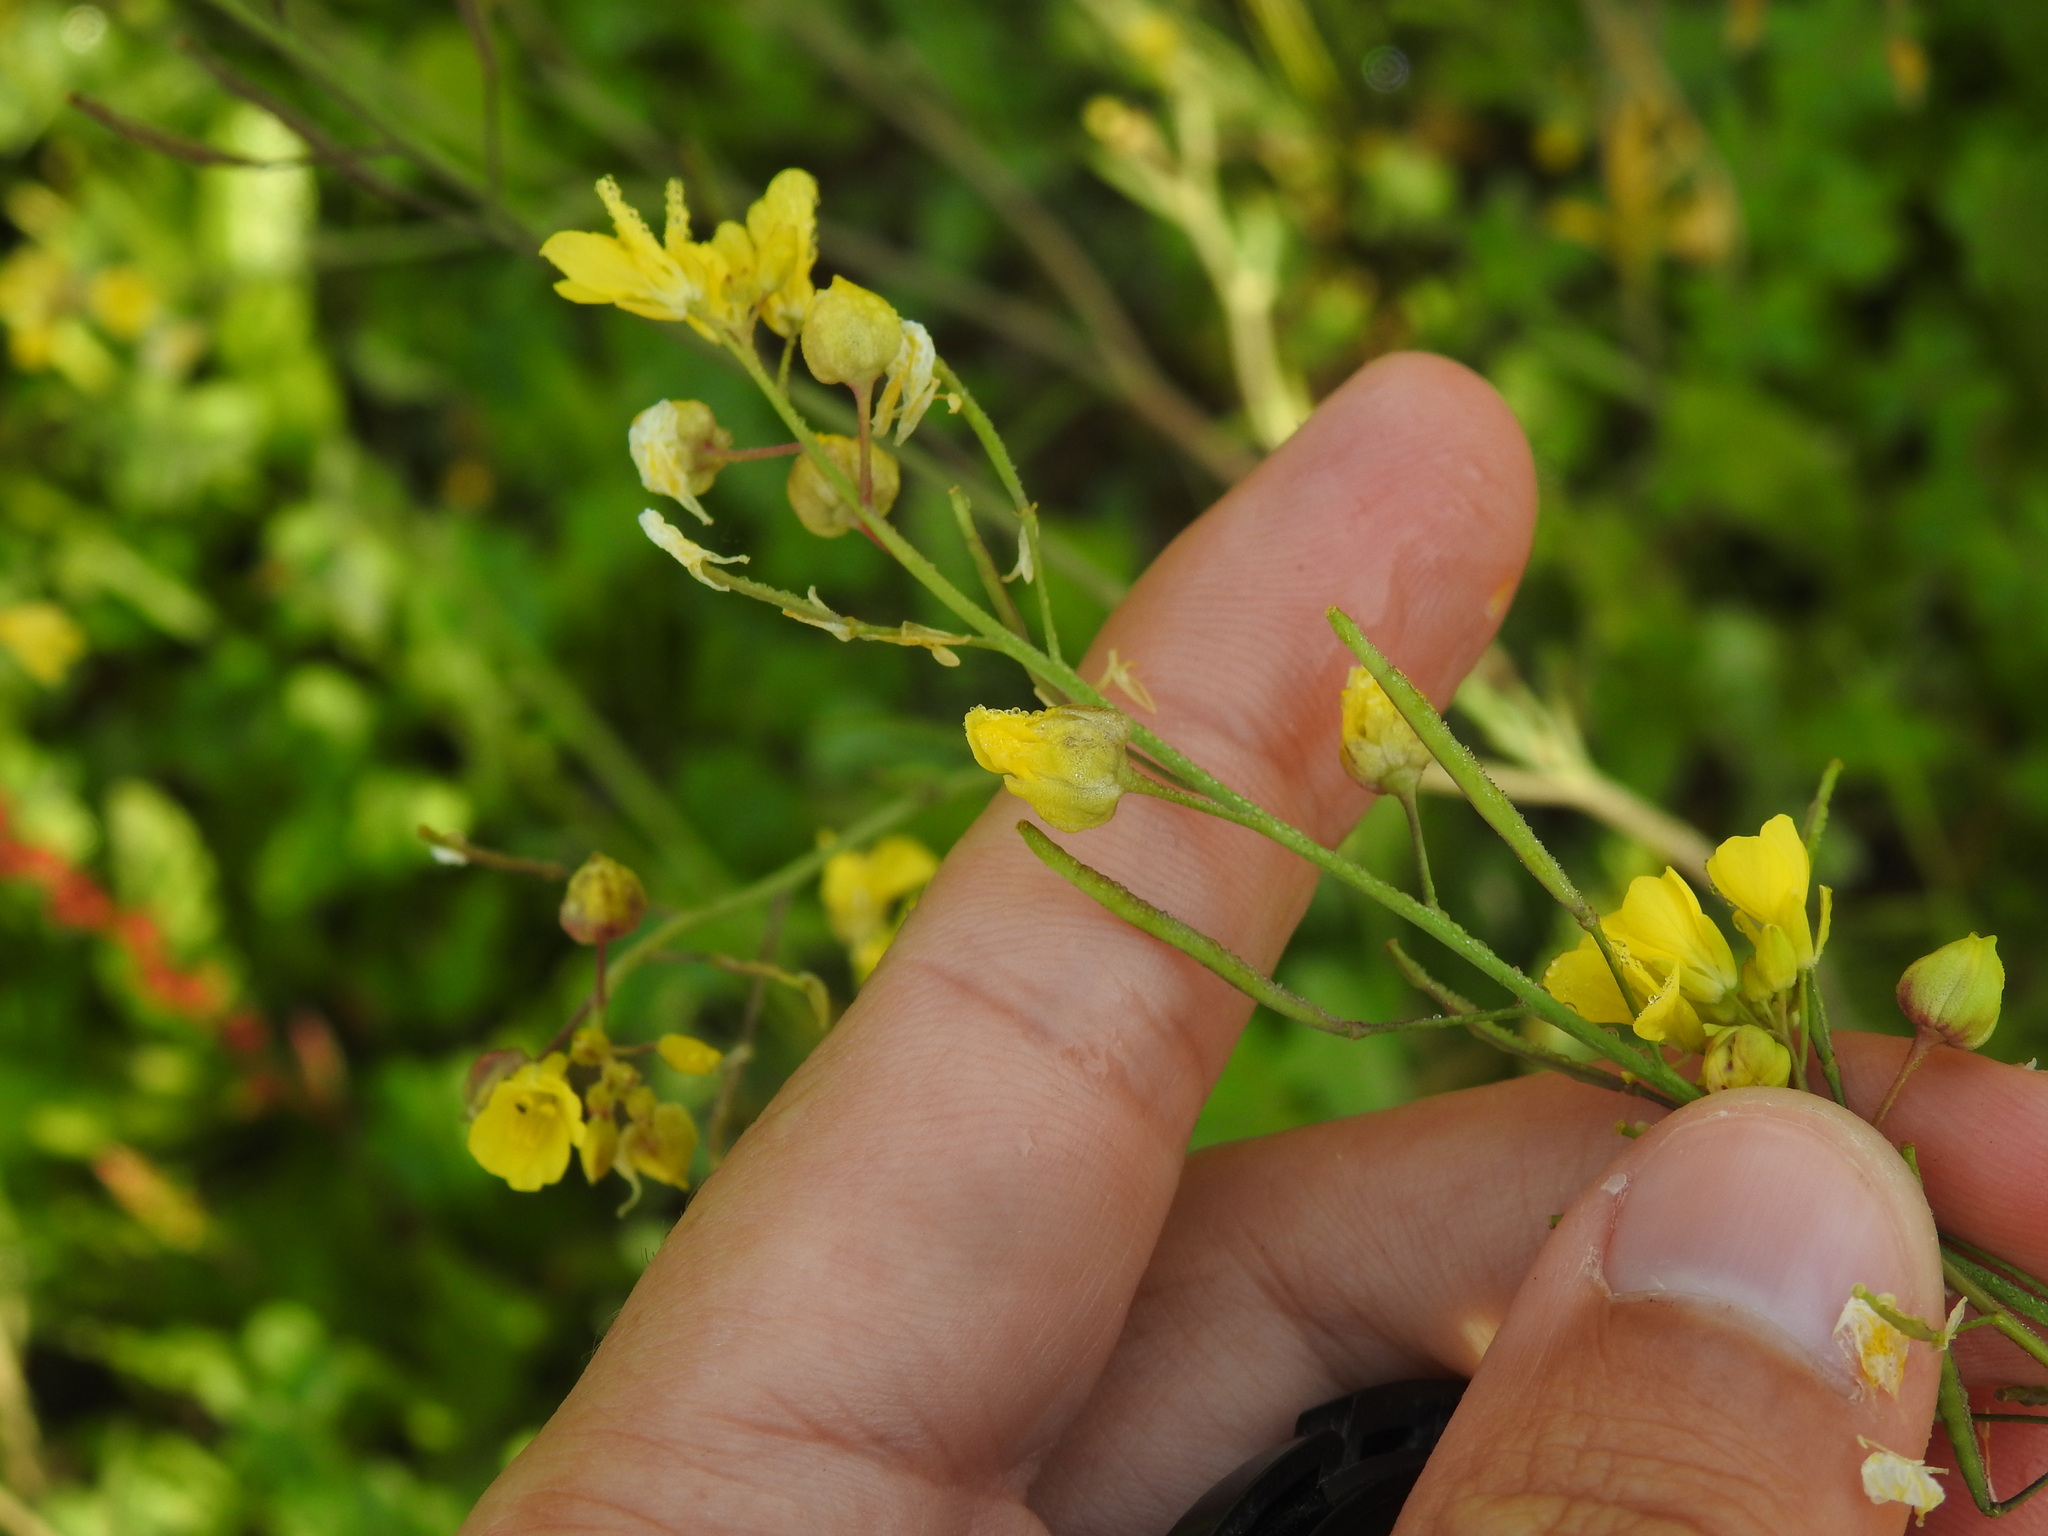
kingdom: Animalia
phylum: Arthropoda
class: Insecta
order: Diptera
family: Cecidomyiidae
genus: Paragephyraulus
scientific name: Paragephyraulus diplotaxis
